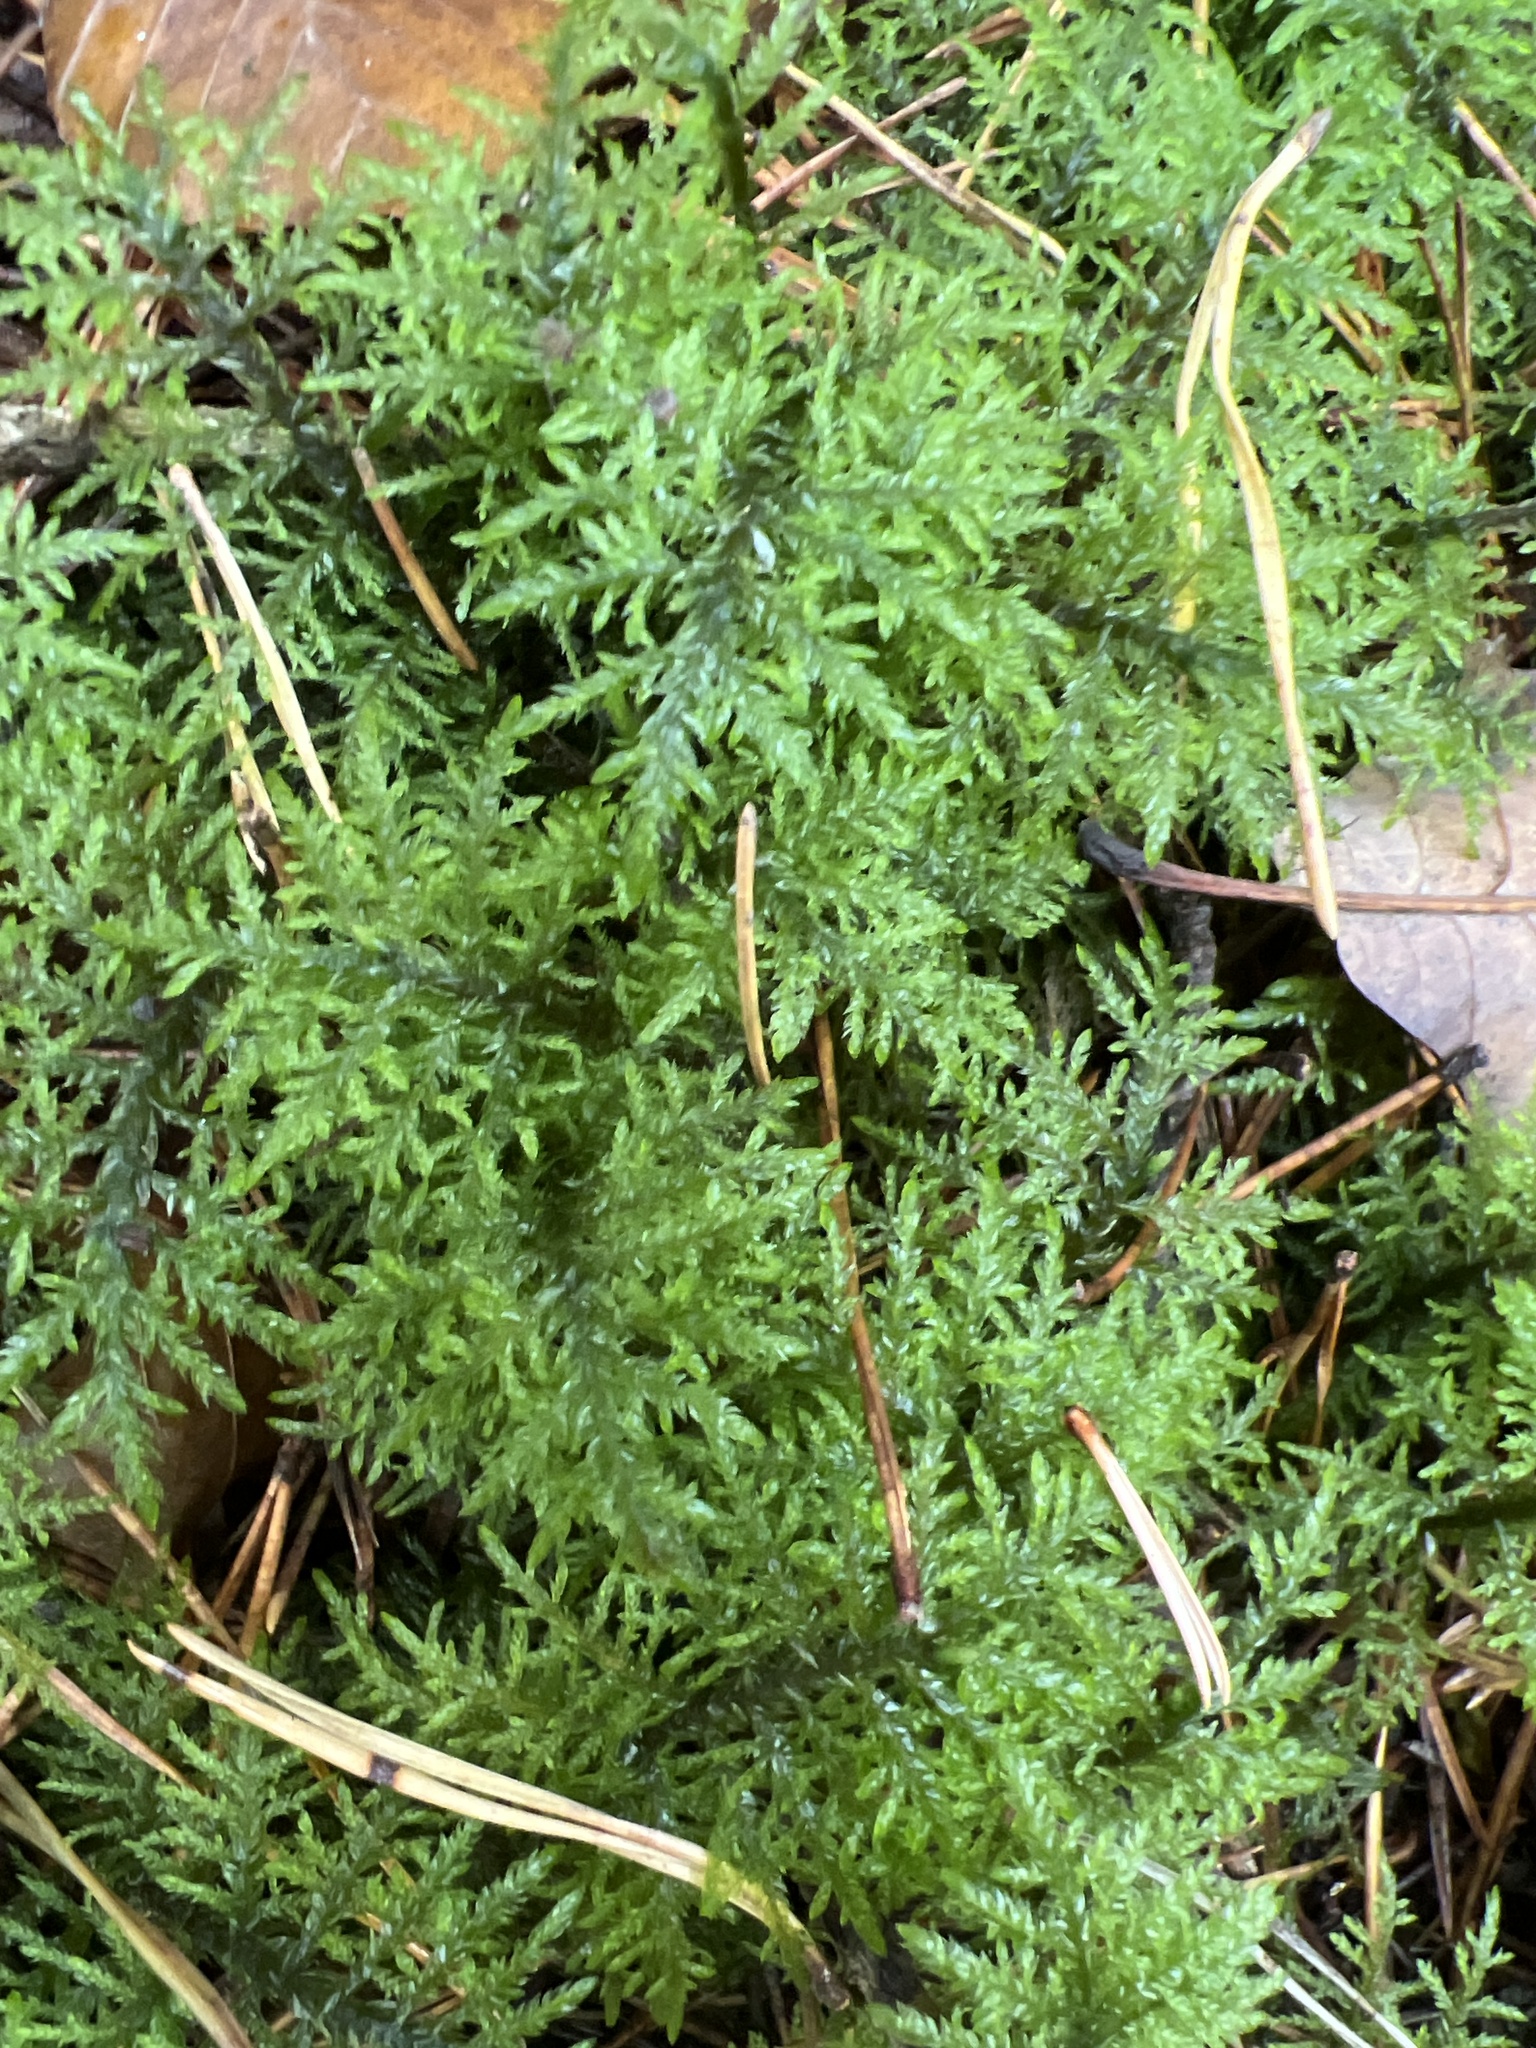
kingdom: Plantae
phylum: Bryophyta
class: Bryopsida
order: Hypnales
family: Hylocomiaceae
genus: Hylocomium
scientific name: Hylocomium splendens
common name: Stairstep moss
